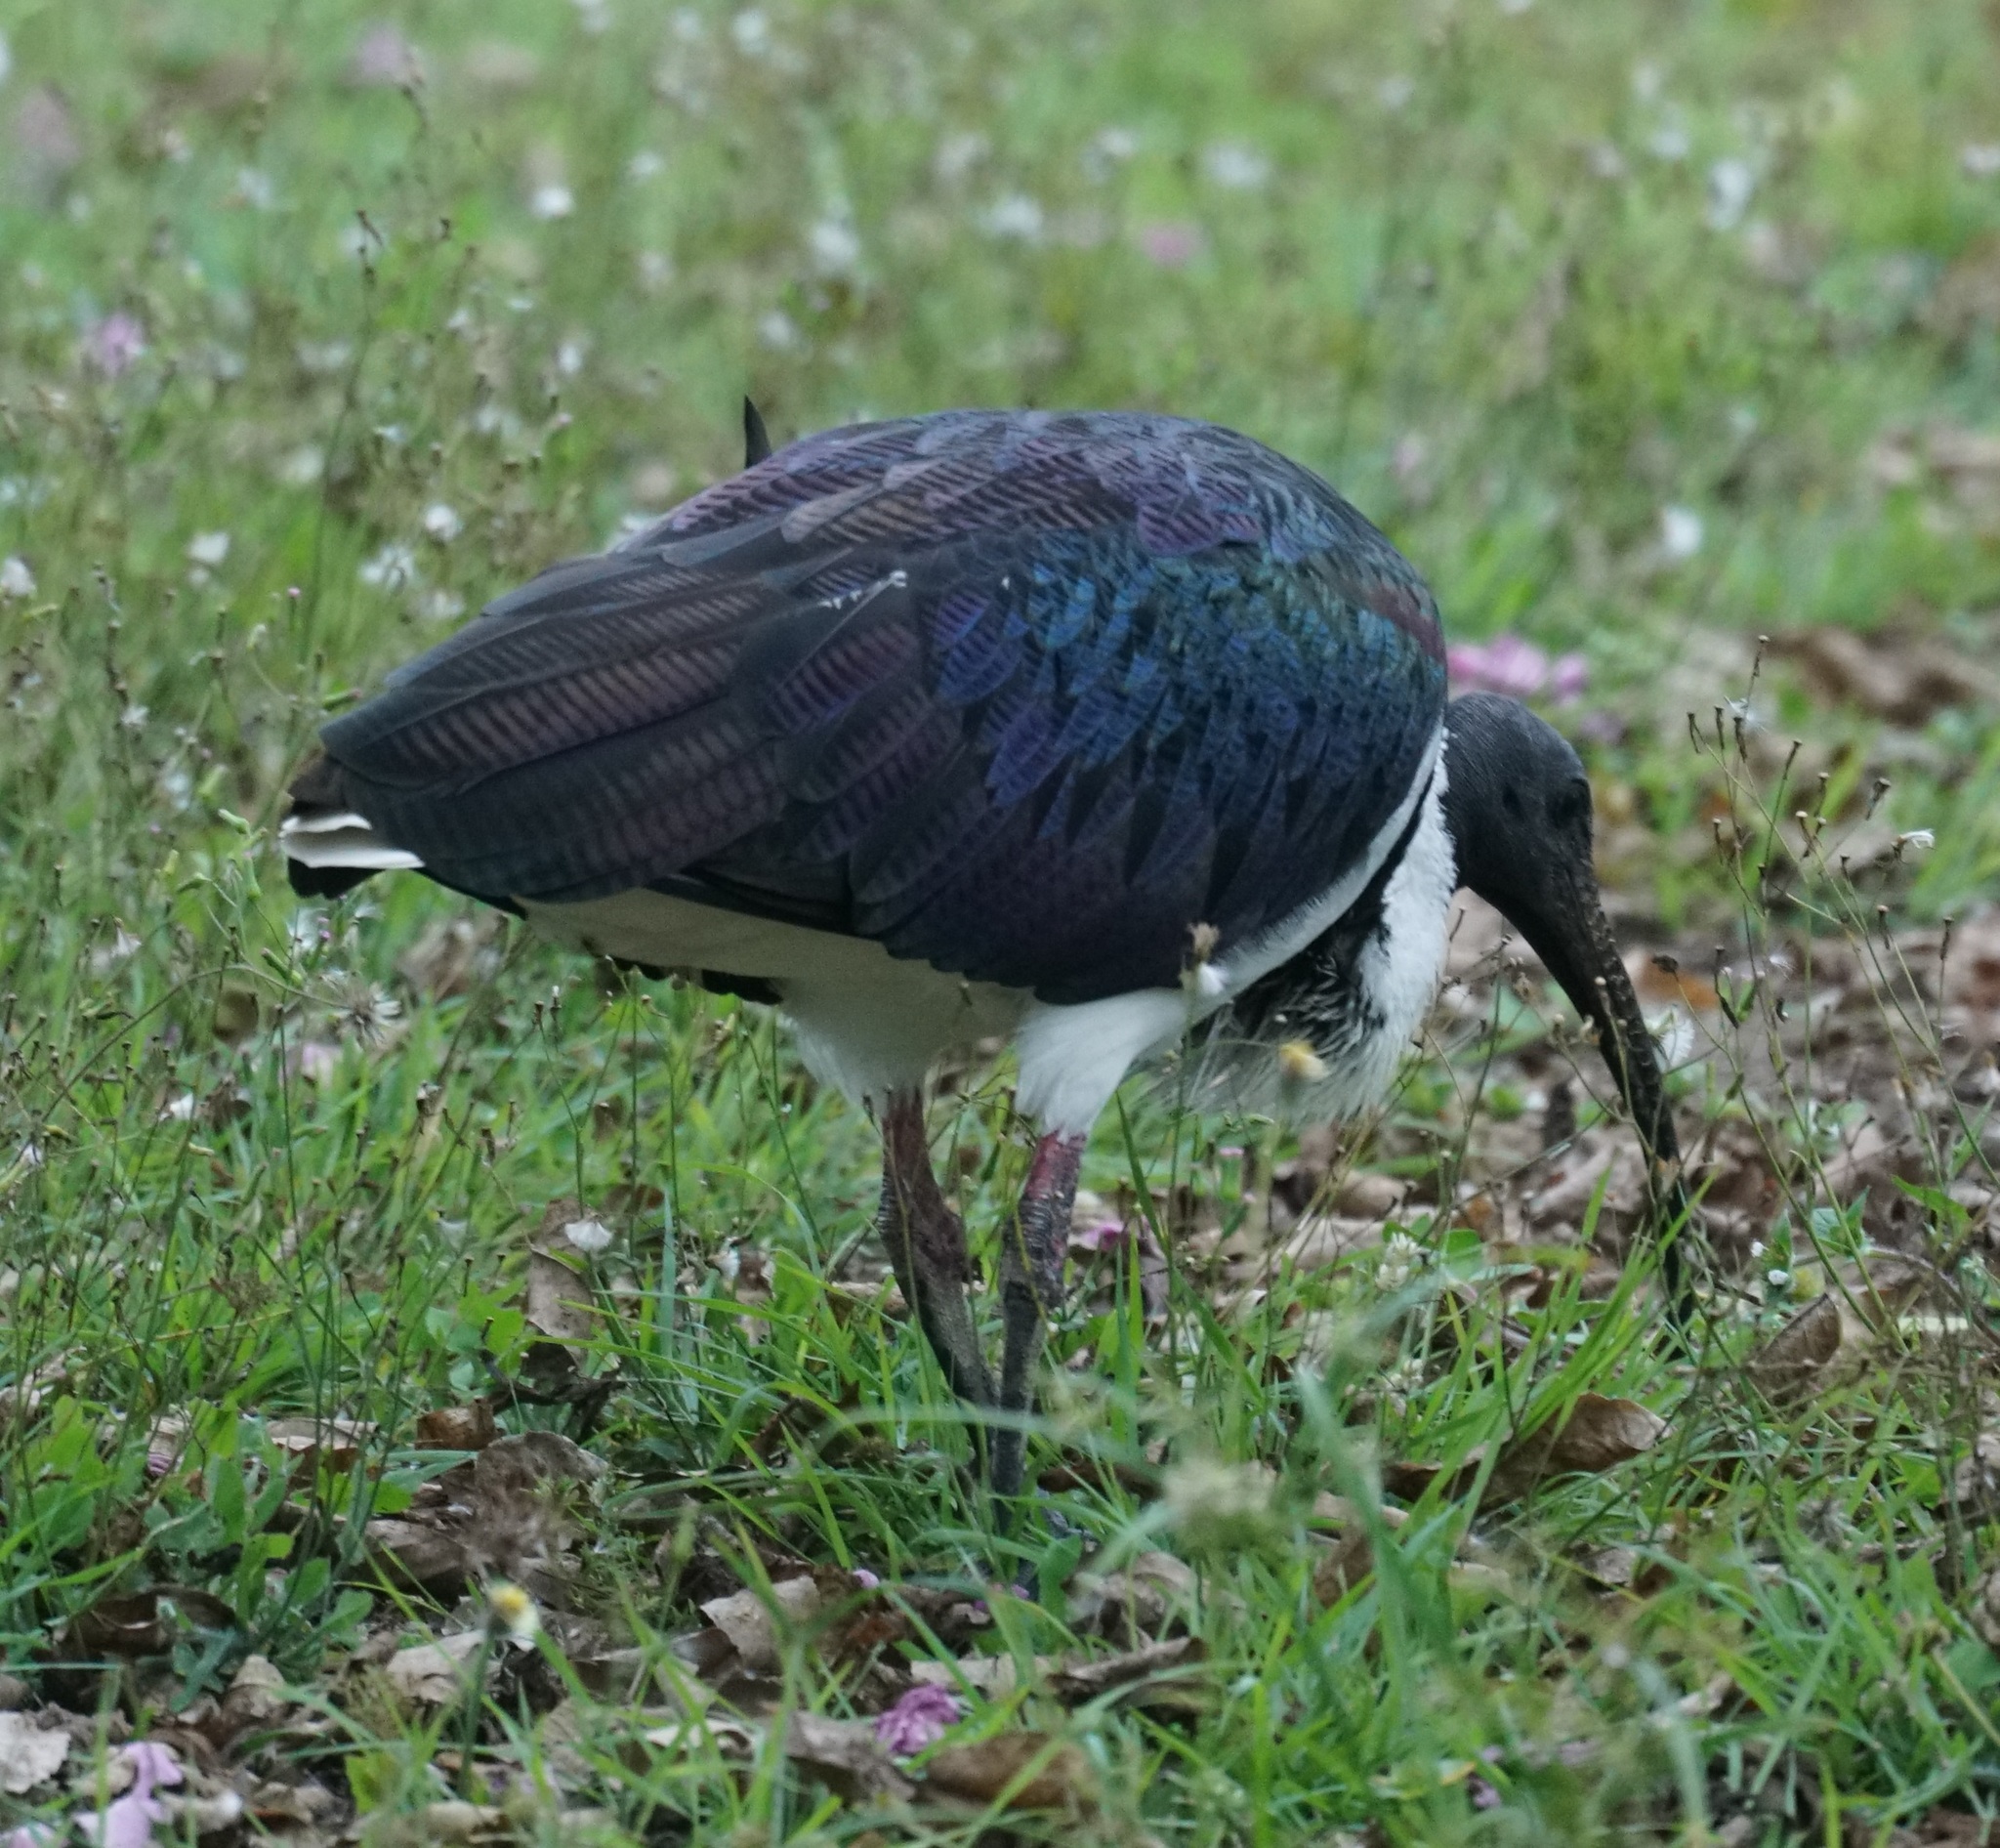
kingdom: Animalia
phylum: Chordata
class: Aves
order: Pelecaniformes
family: Threskiornithidae
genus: Threskiornis
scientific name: Threskiornis spinicollis
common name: Straw-necked ibis
